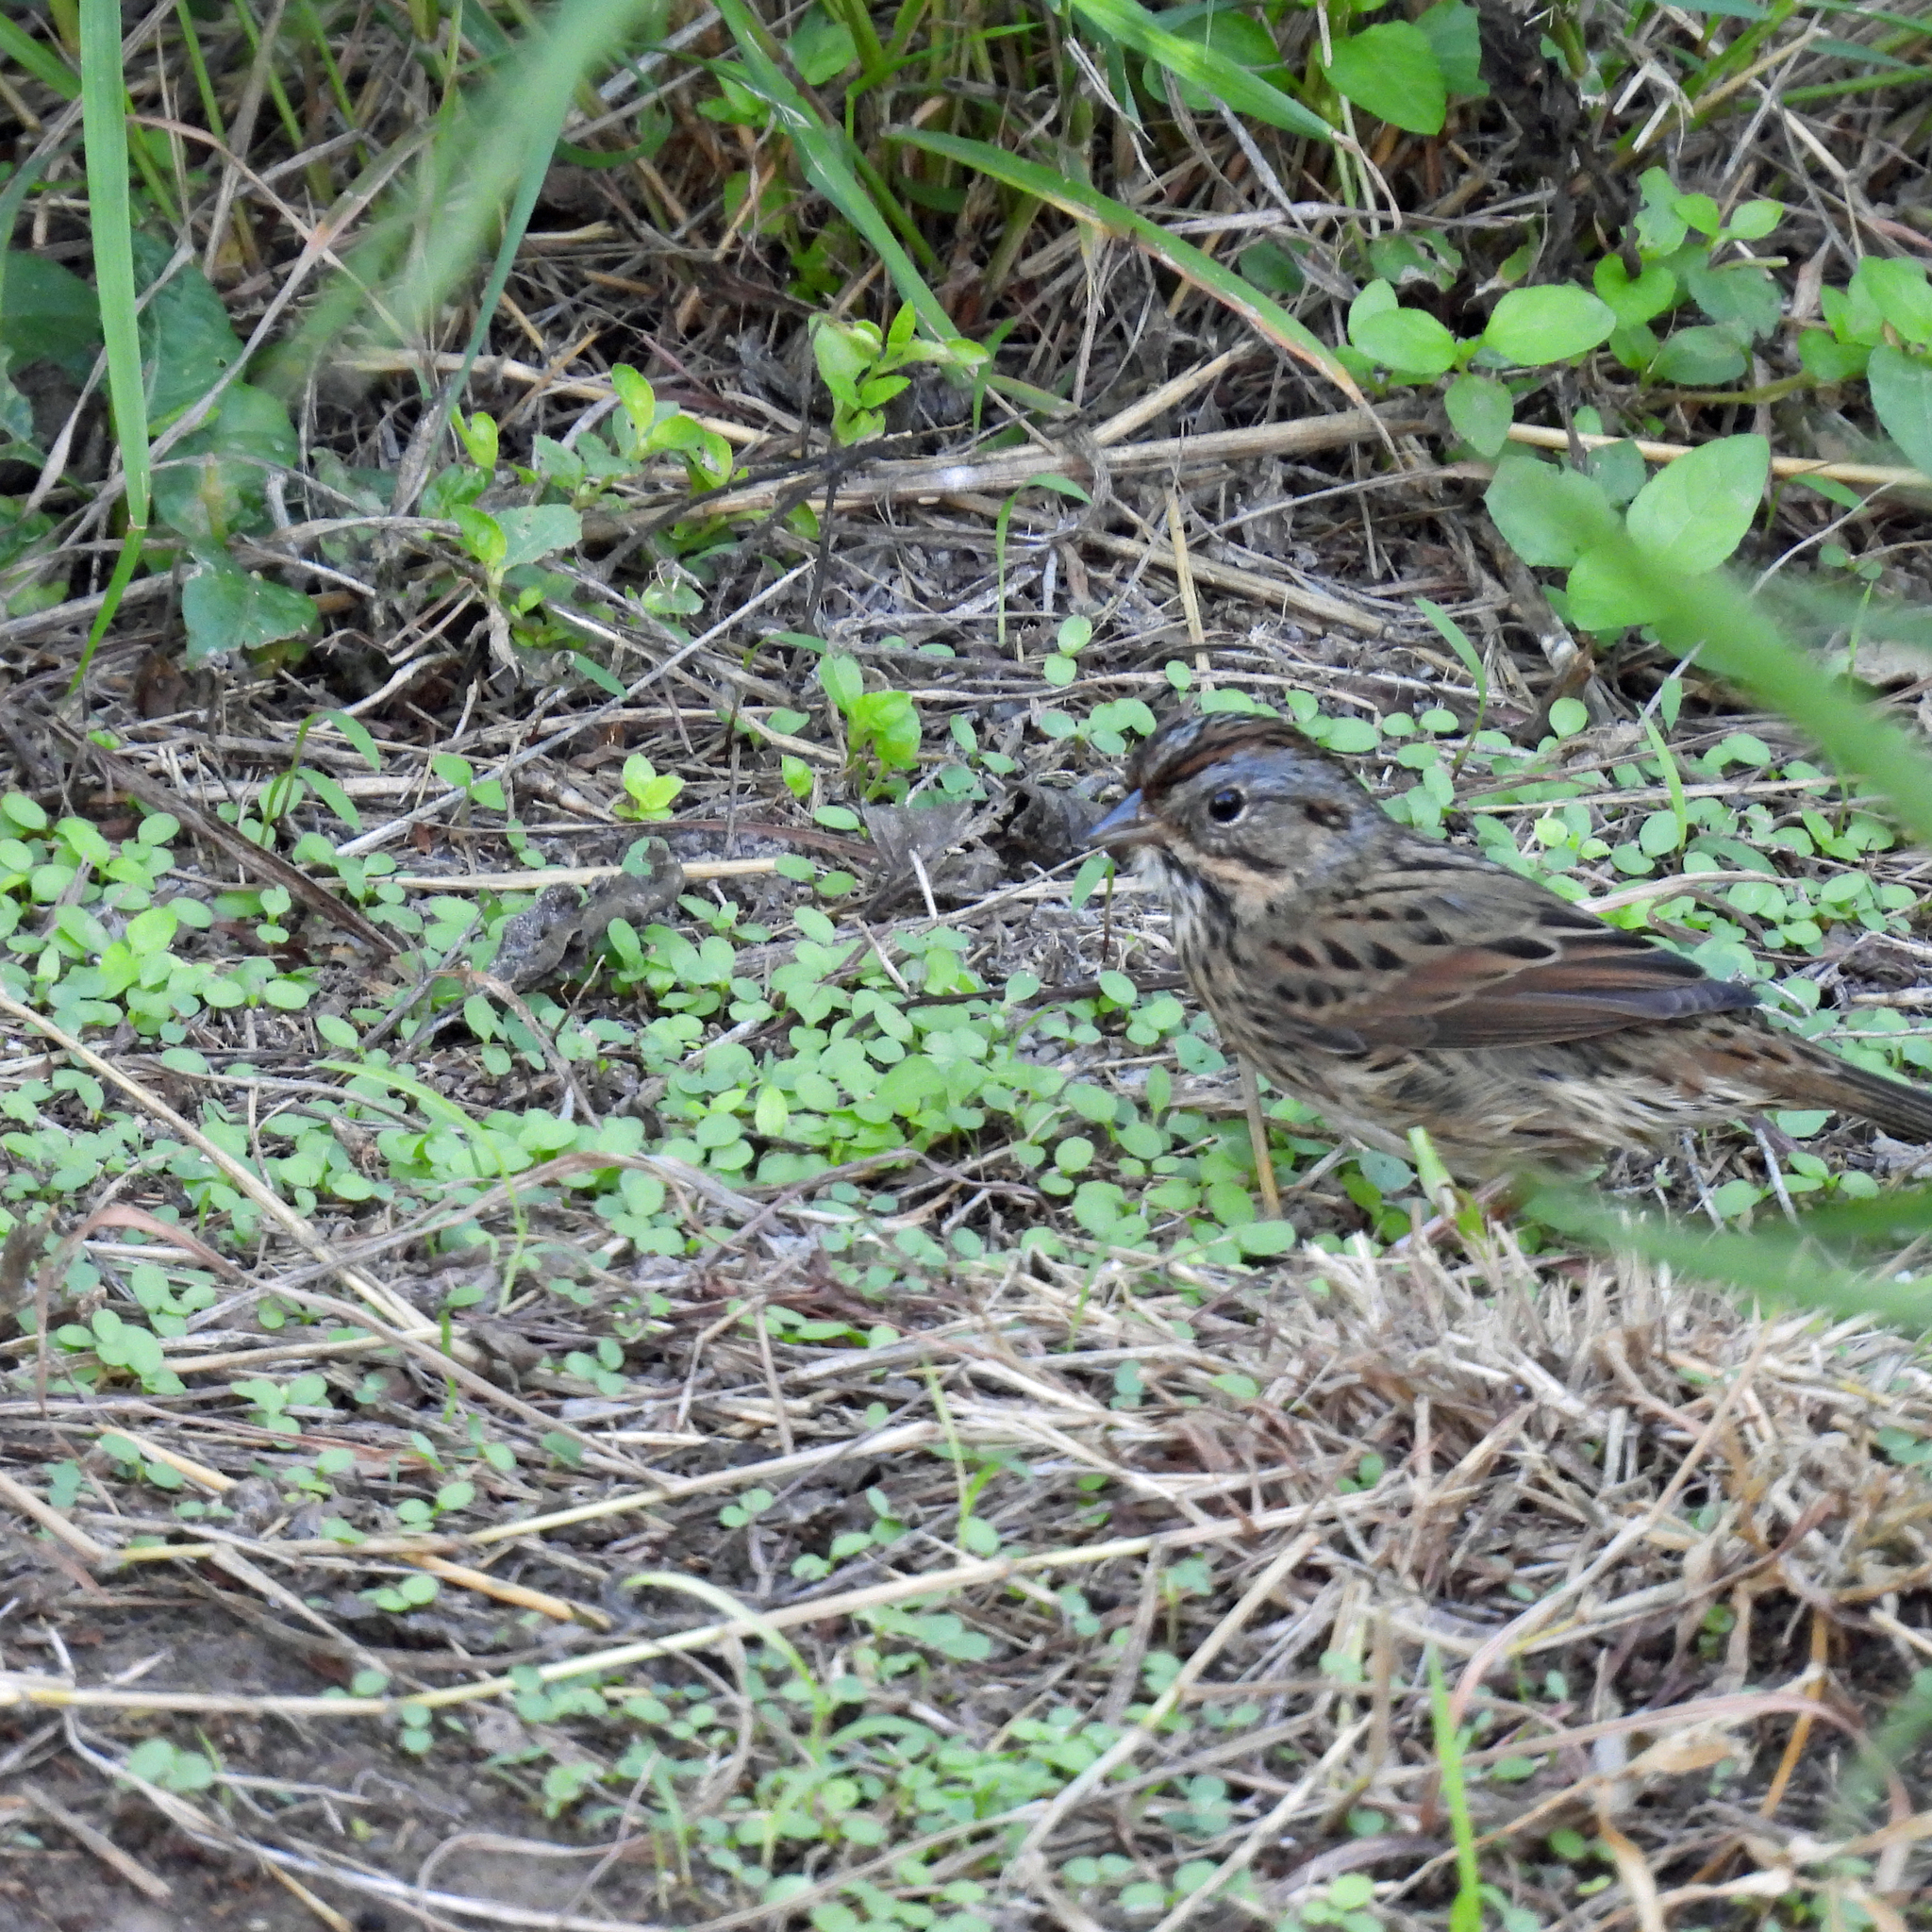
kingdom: Animalia
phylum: Chordata
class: Aves
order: Passeriformes
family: Passerellidae
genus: Melospiza
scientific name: Melospiza lincolnii
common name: Lincoln's sparrow
